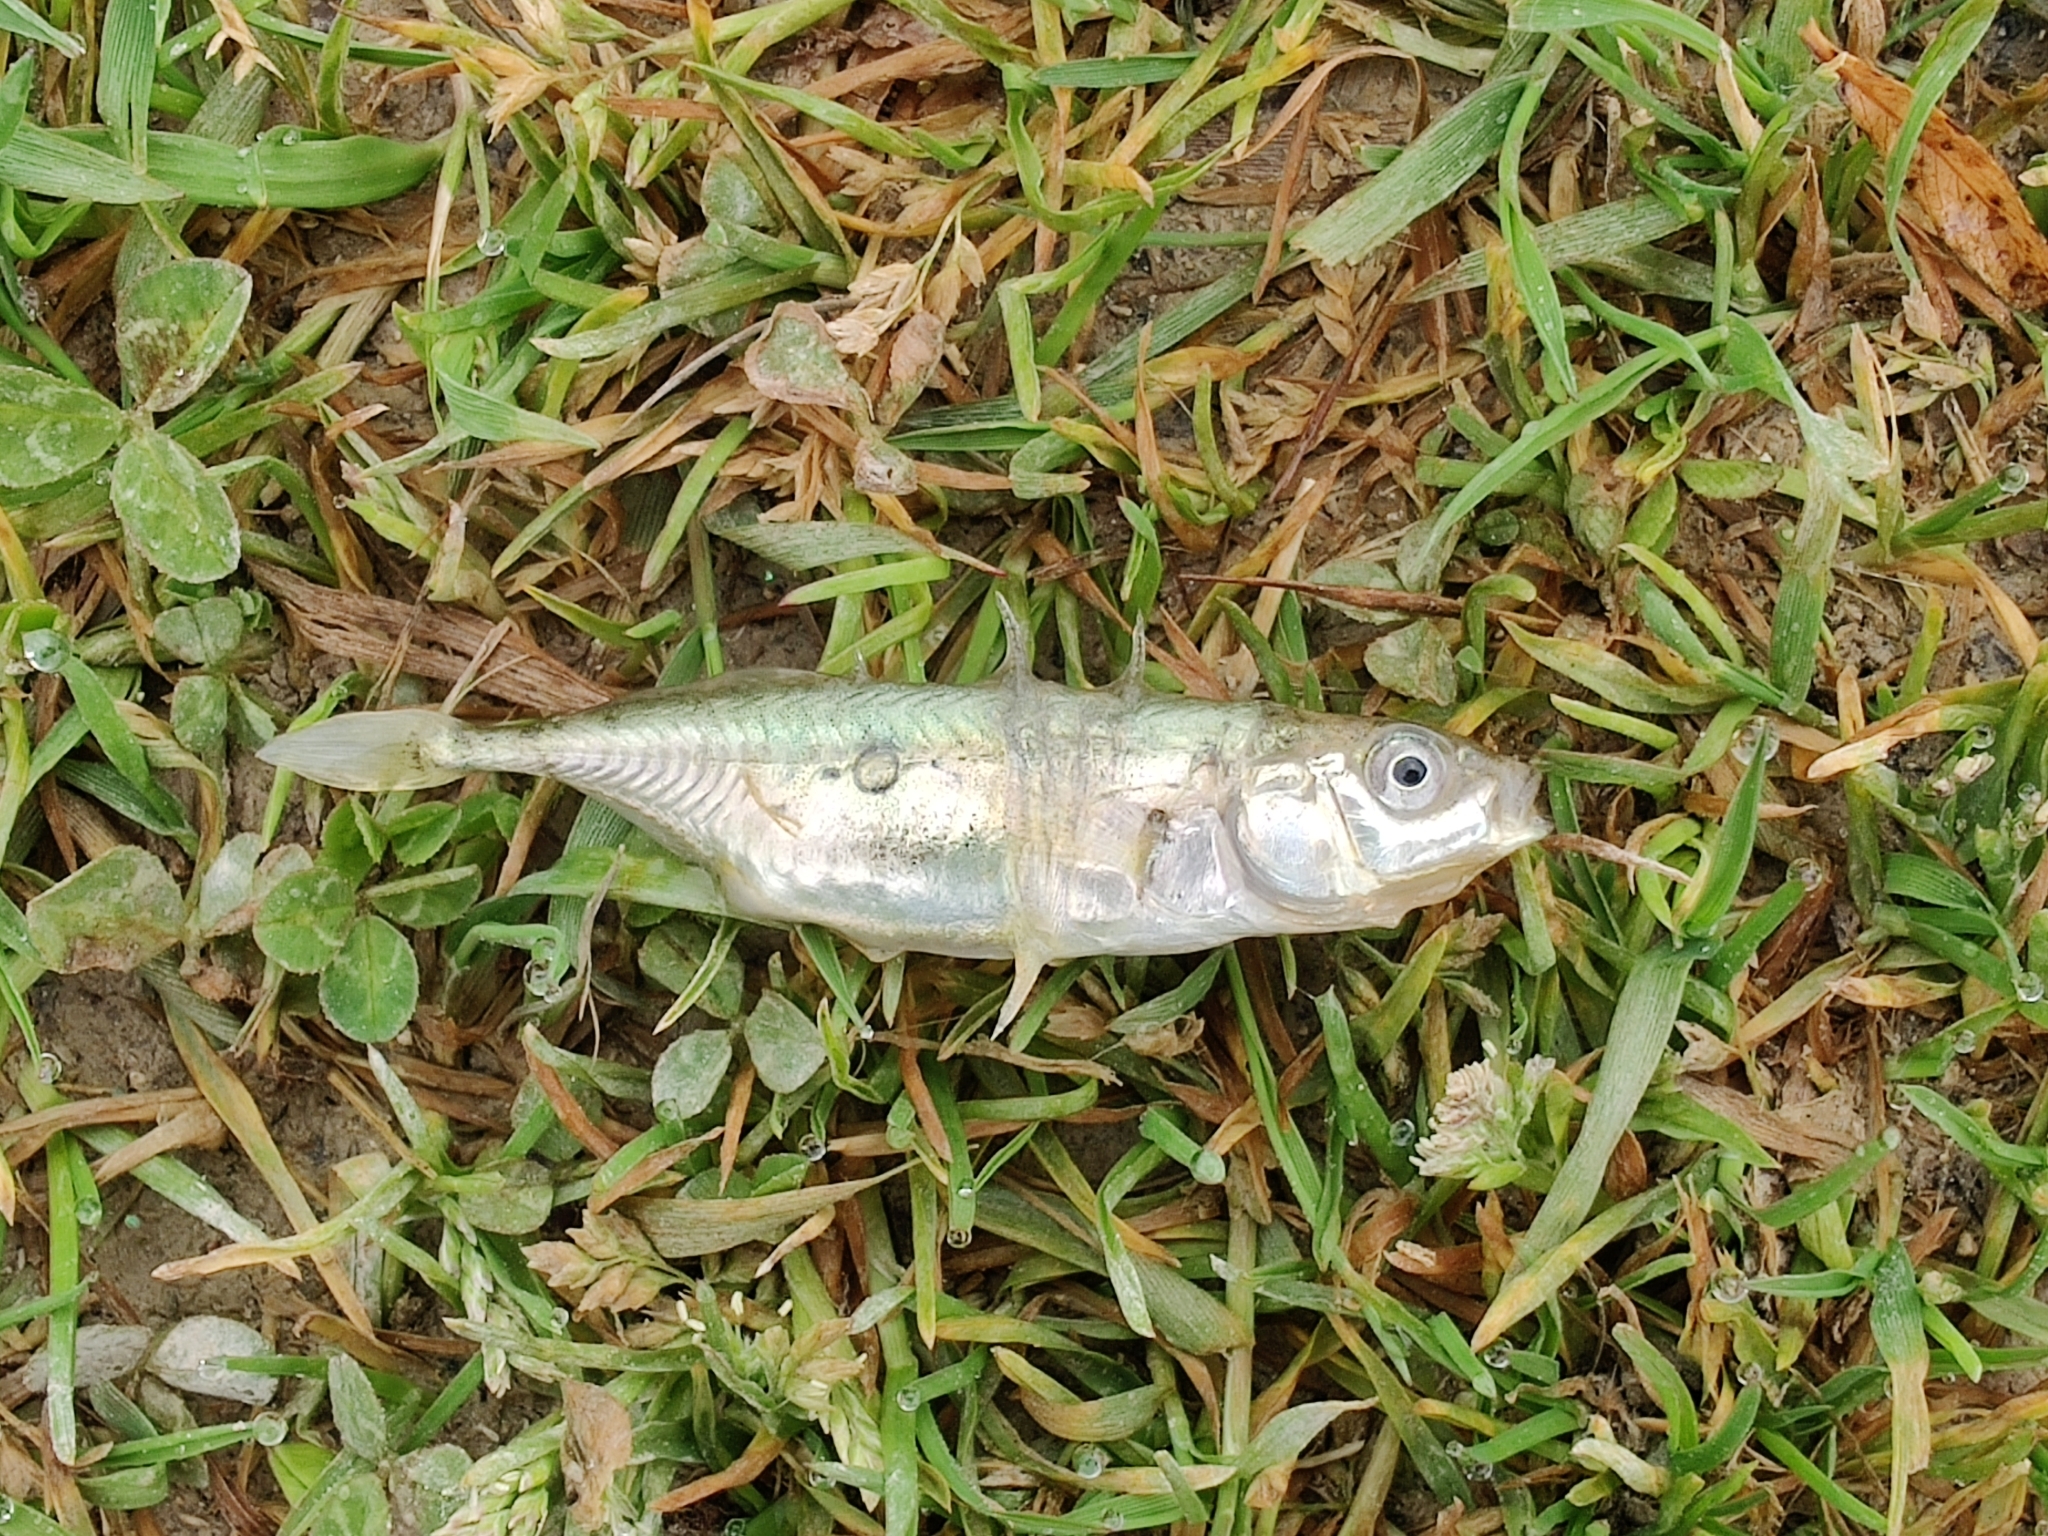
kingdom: Animalia
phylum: Chordata
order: Gasterosteiformes
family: Gasterosteidae
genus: Gasterosteus
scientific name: Gasterosteus aculeatus
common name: Three-spined stickleback
